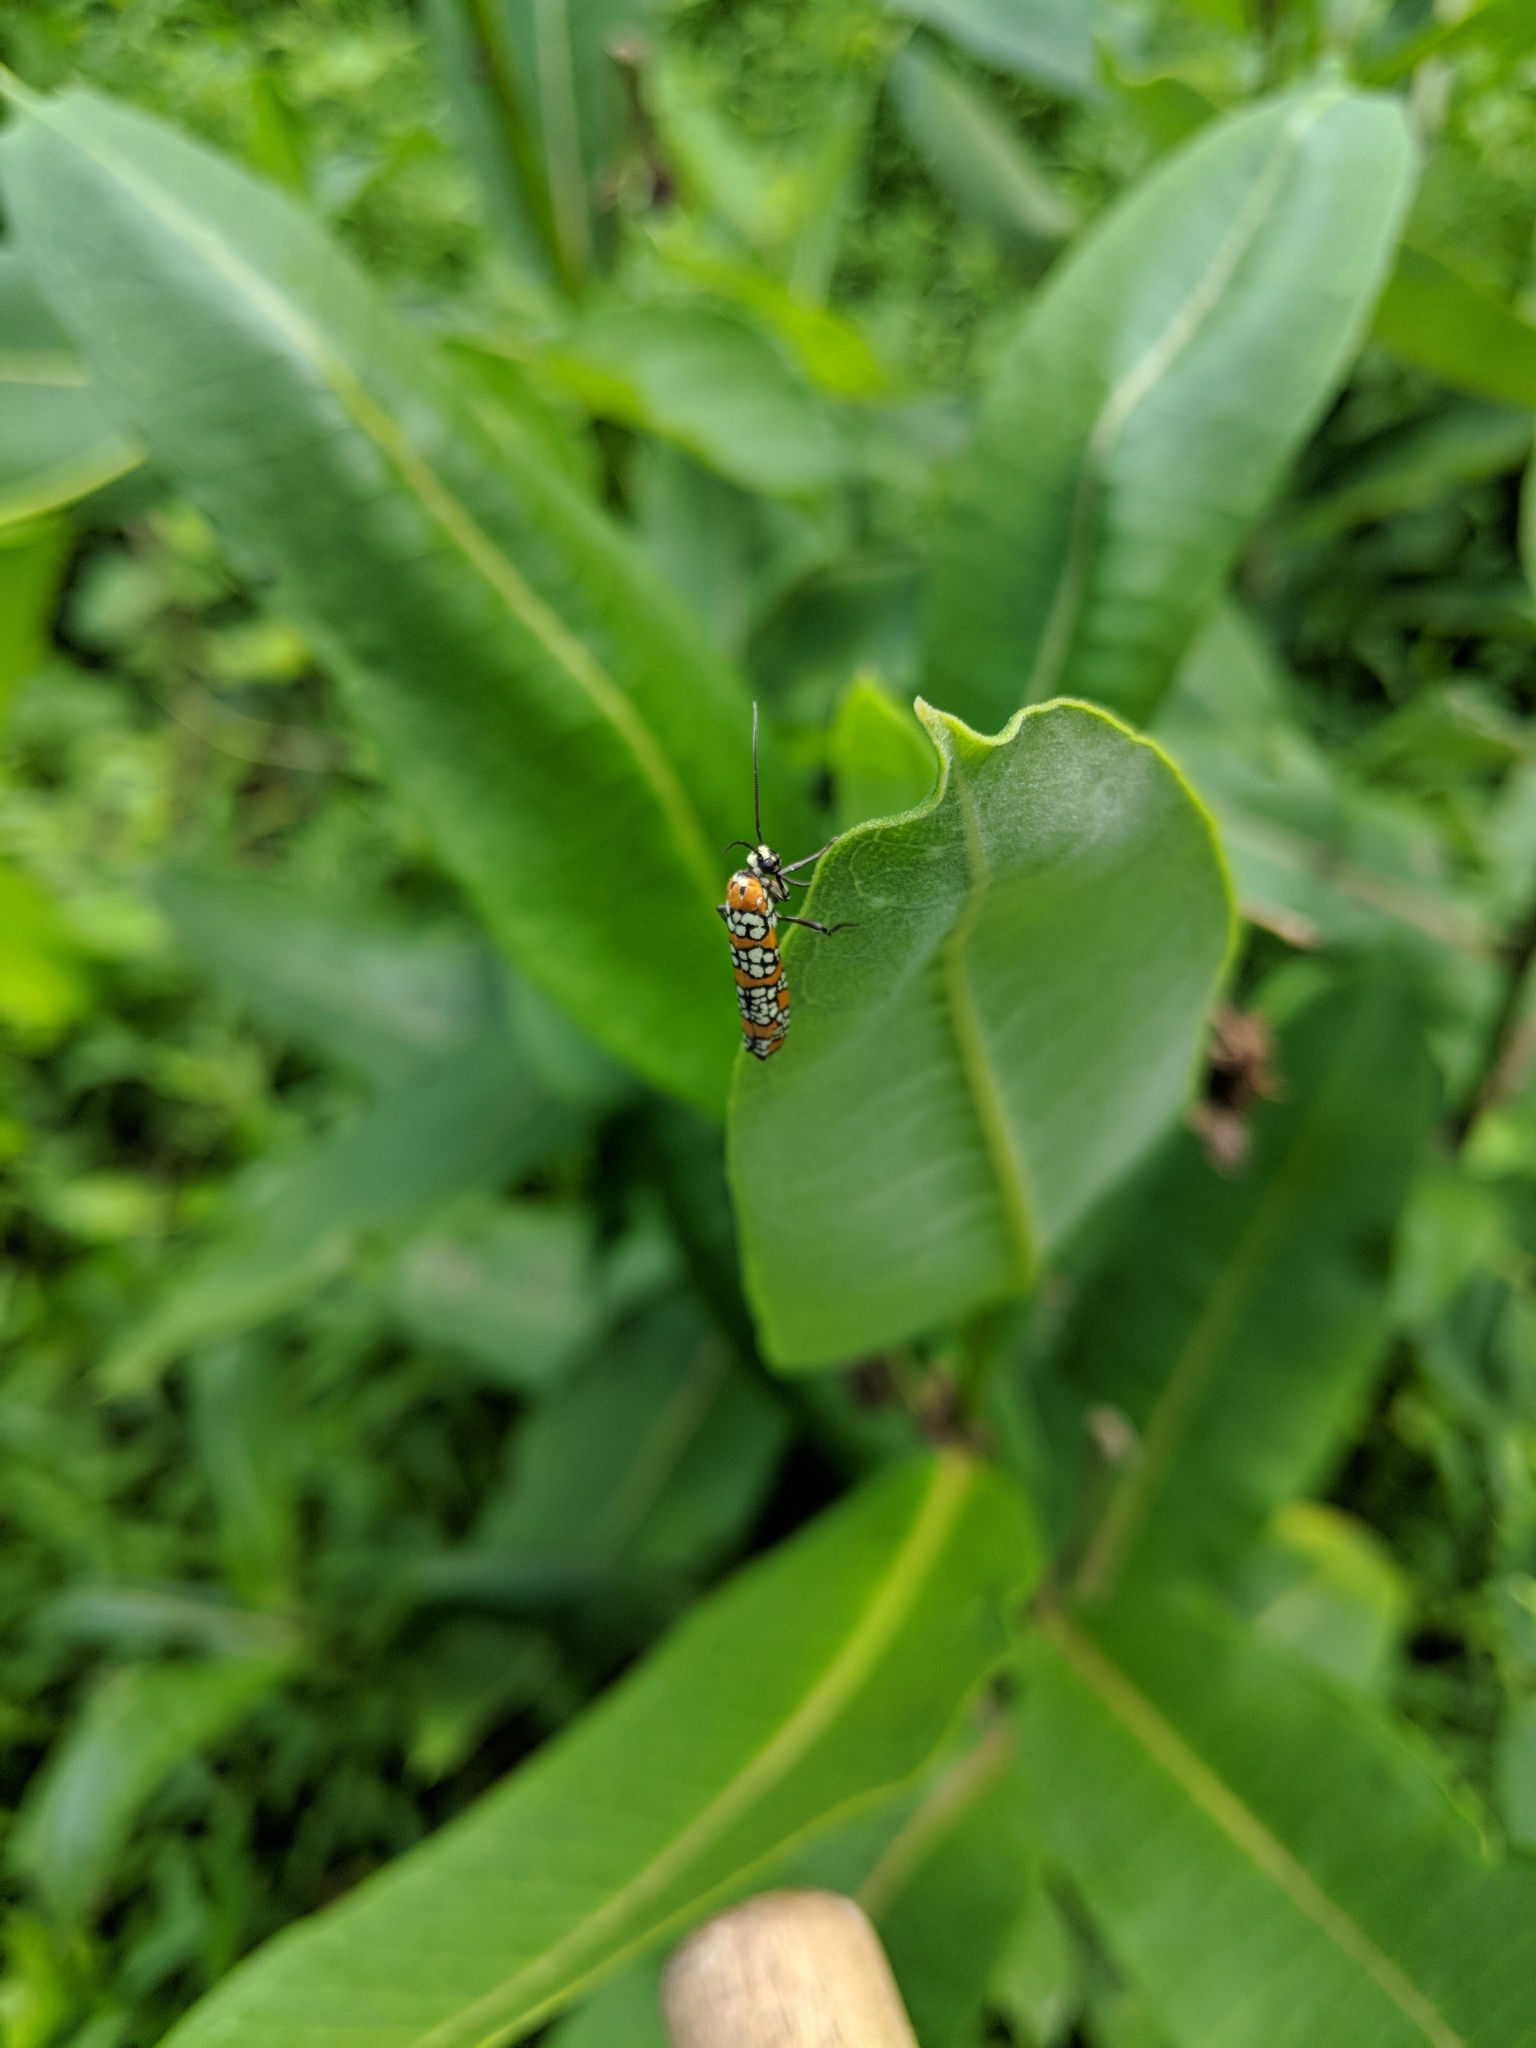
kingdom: Animalia
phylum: Arthropoda
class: Insecta
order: Lepidoptera
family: Attevidae
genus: Atteva
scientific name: Atteva punctella
